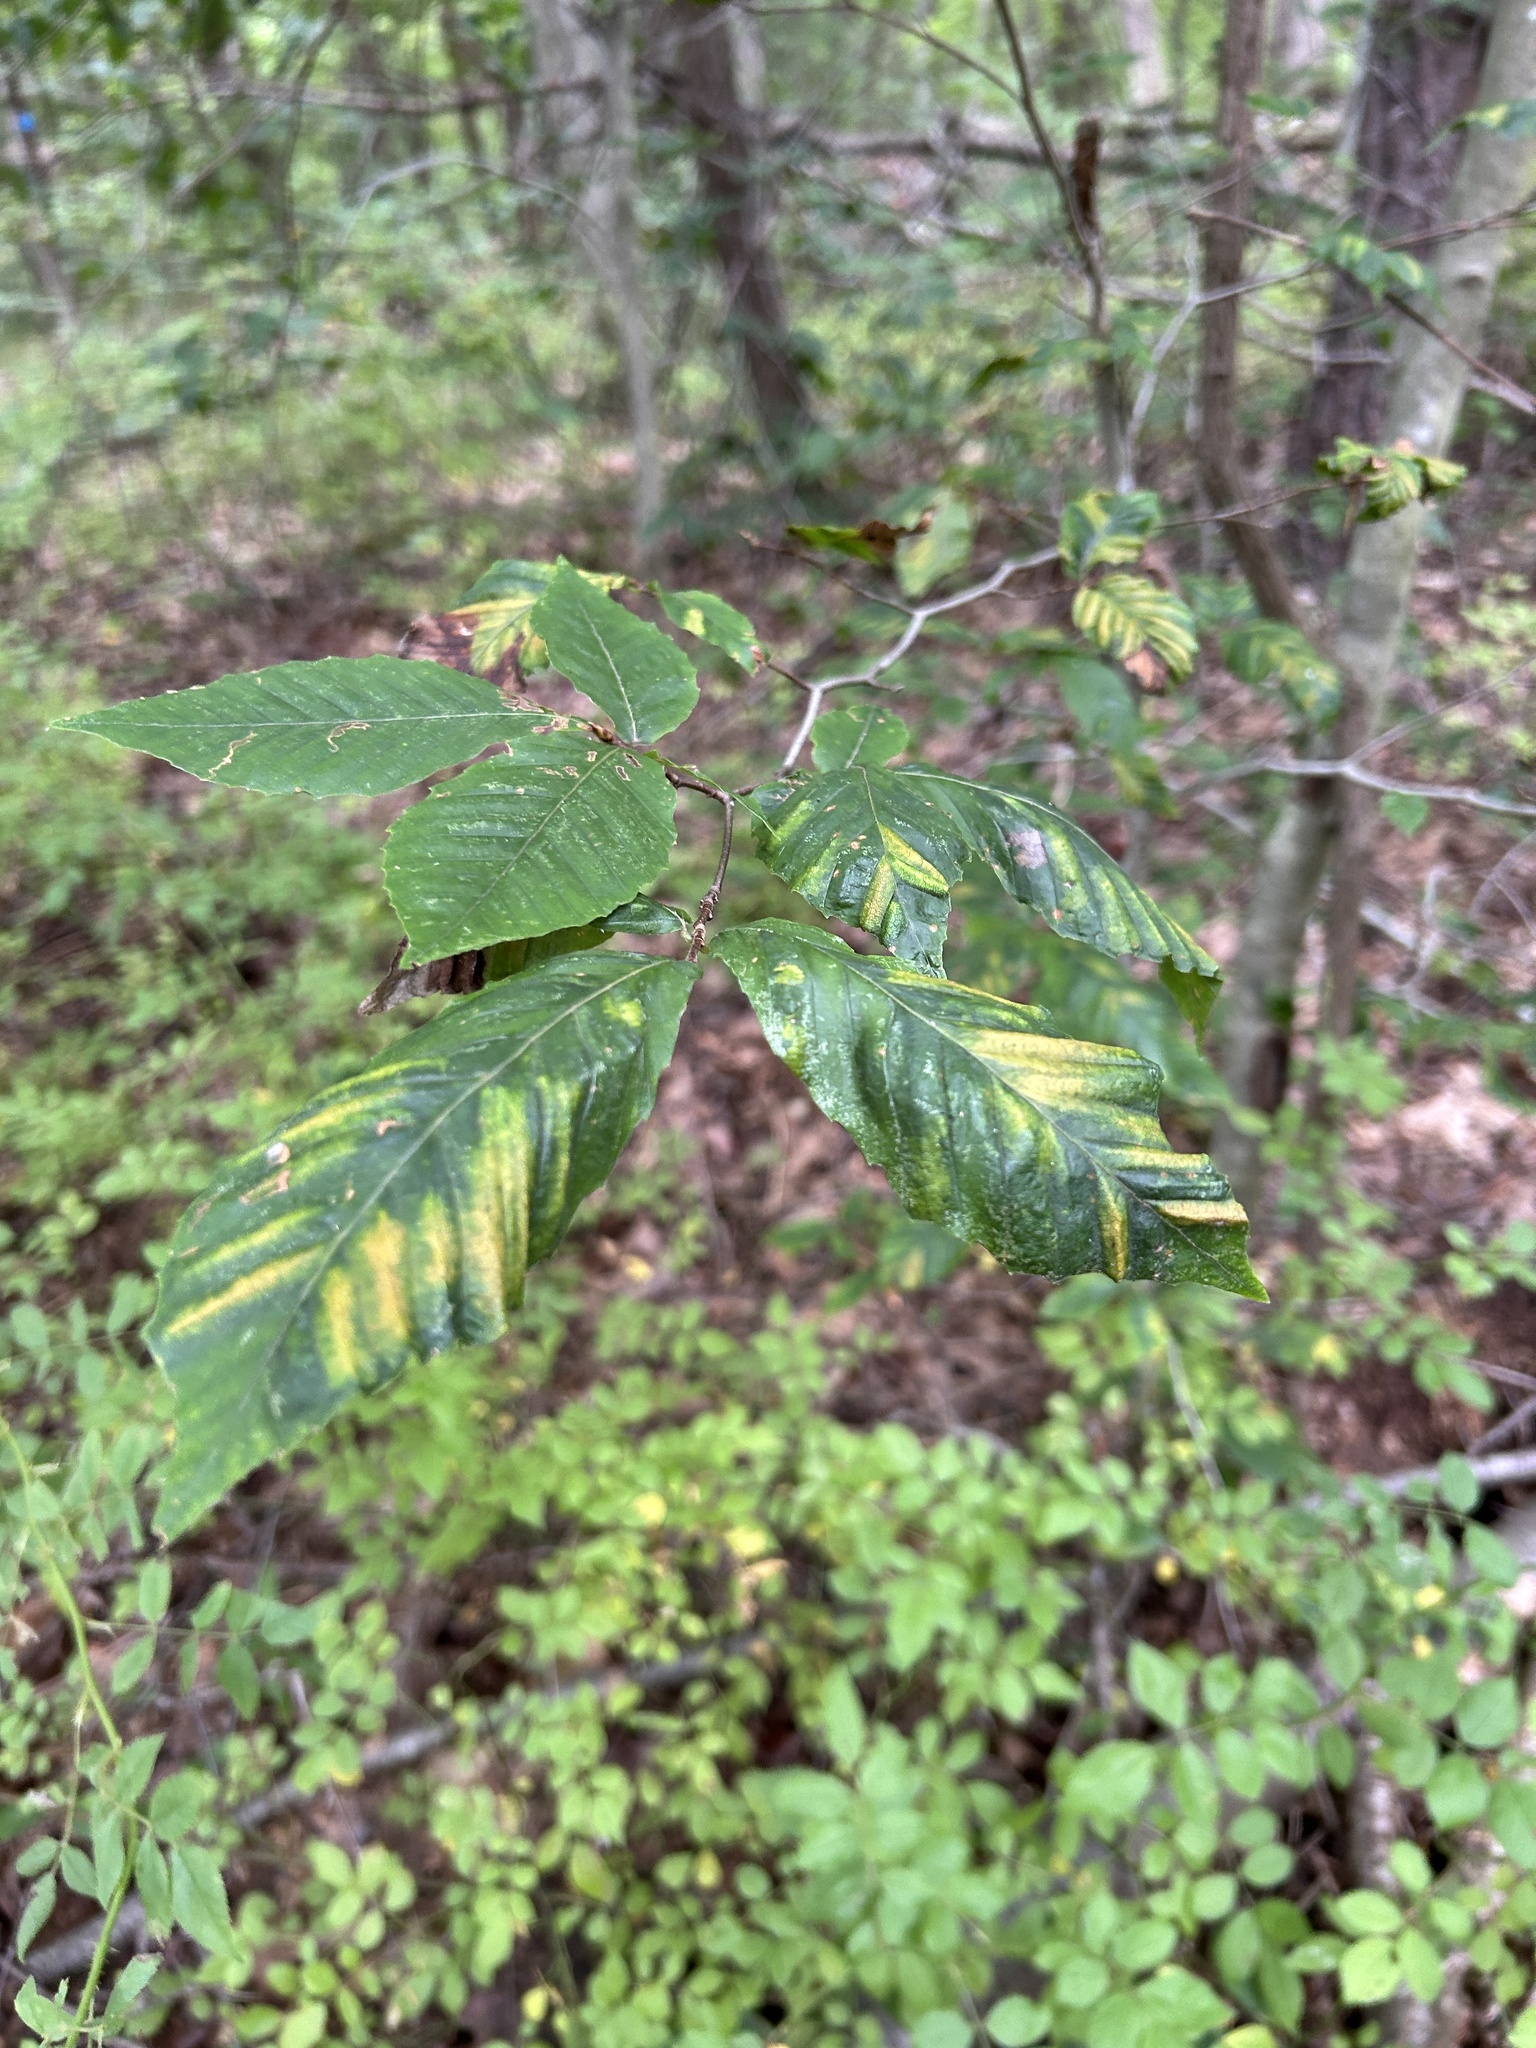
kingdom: Animalia
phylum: Nematoda
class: Chromadorea
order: Rhabditida
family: Anguinidae
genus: Litylenchus
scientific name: Litylenchus crenatae
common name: Beech leaf disease
